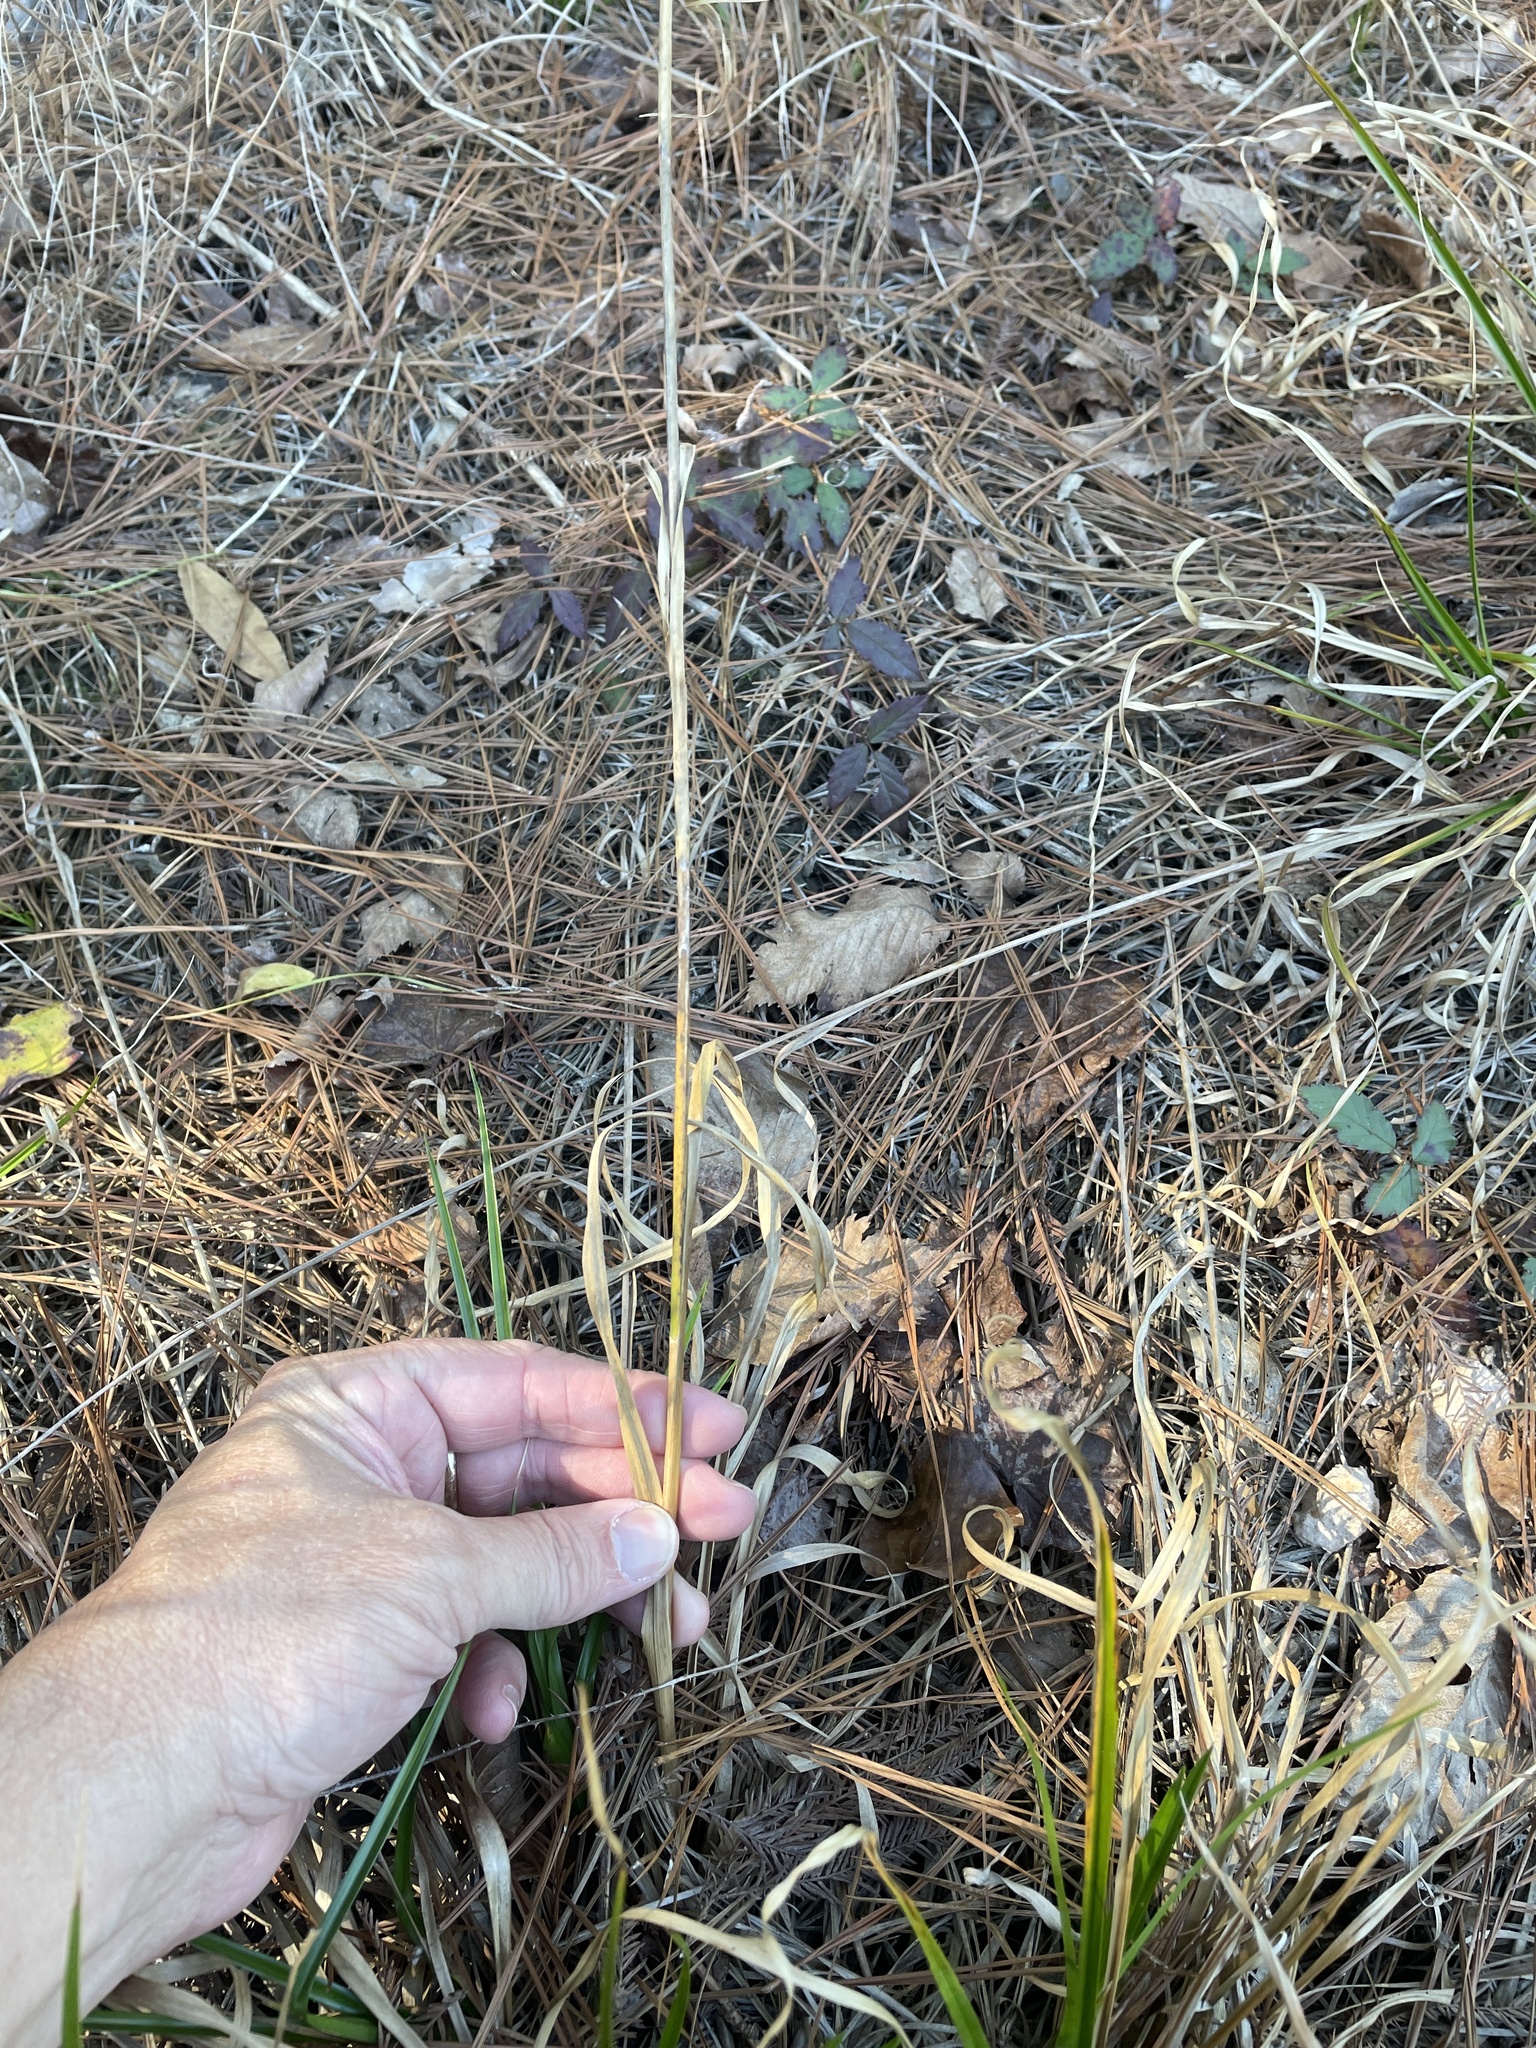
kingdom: Plantae
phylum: Tracheophyta
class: Liliopsida
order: Poales
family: Cyperaceae
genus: Rhynchospora
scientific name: Rhynchospora caduca
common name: Anglestem beaksedge
